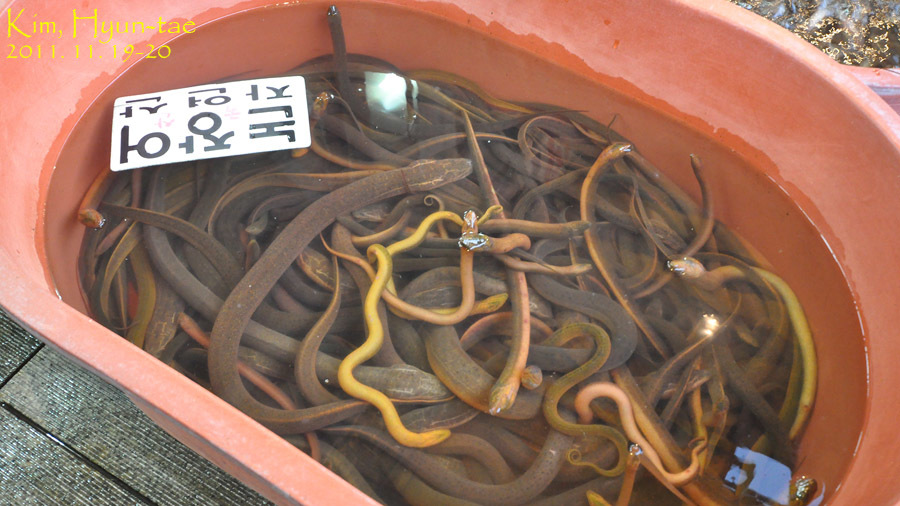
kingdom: Animalia
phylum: Chordata
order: Synbranchiformes
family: Synbranchidae
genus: Monopterus
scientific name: Monopterus albus
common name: Asian swamp eel
